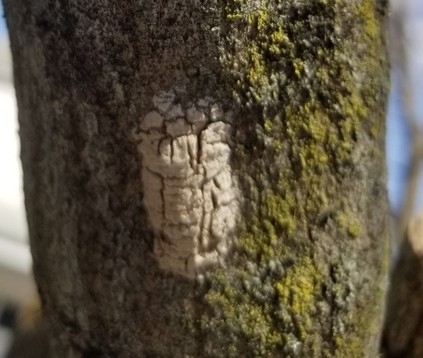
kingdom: Animalia
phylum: Arthropoda
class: Insecta
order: Hemiptera
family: Fulgoridae
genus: Lycorma
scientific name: Lycorma delicatula
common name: Spotted lanternfly
